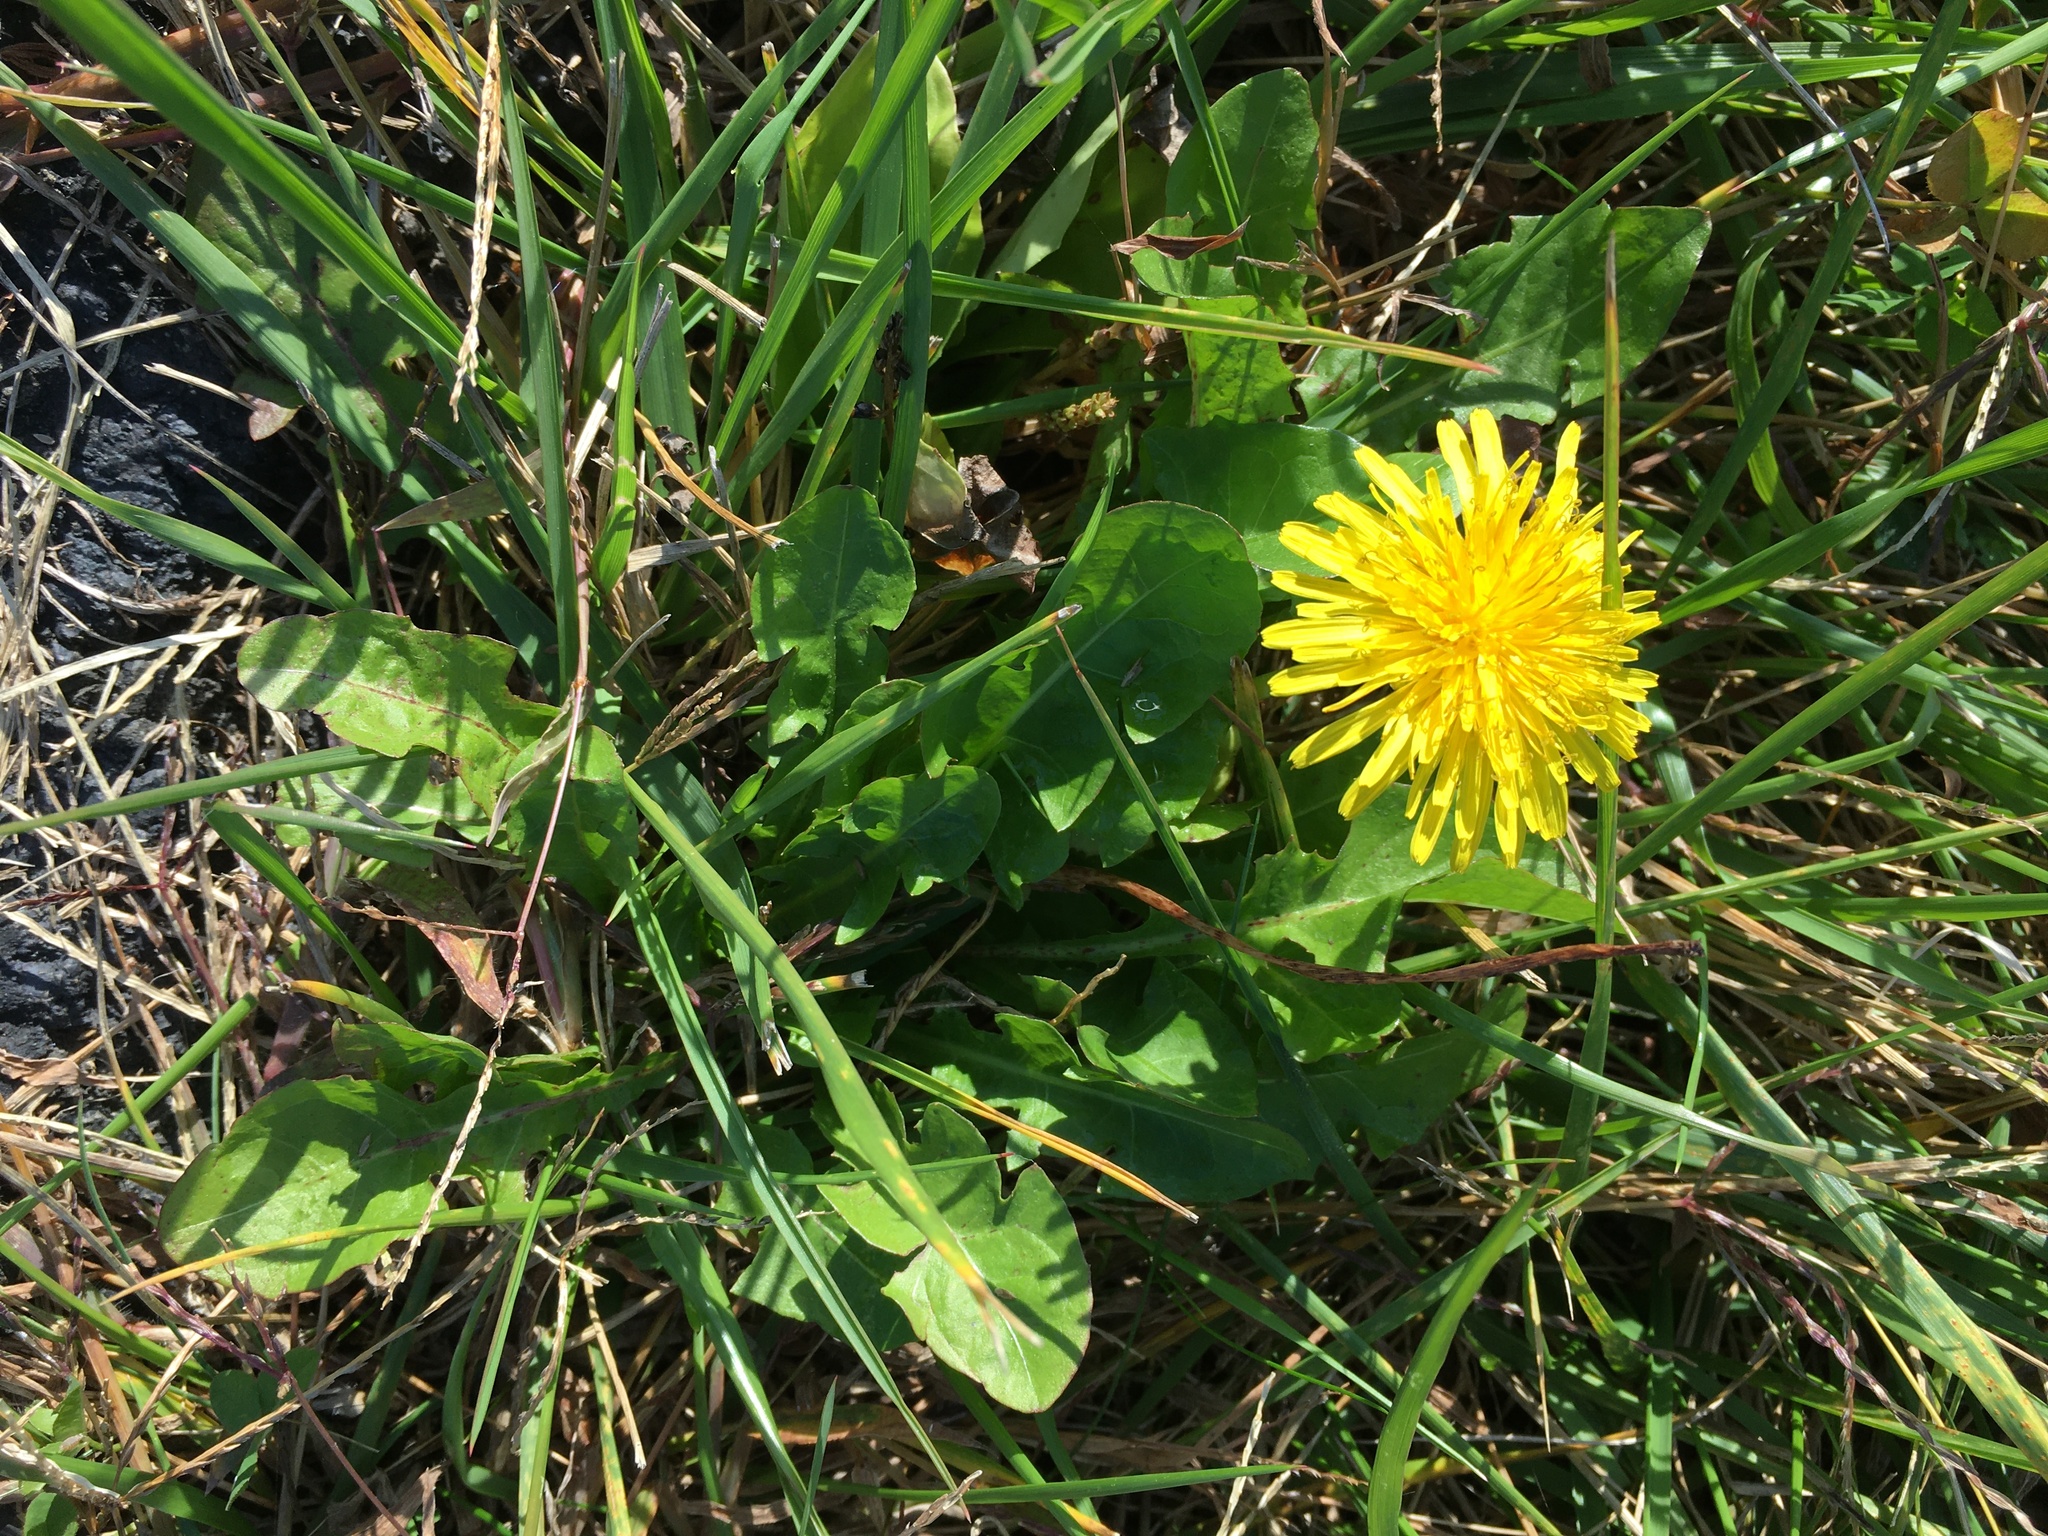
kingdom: Plantae
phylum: Tracheophyta
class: Magnoliopsida
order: Asterales
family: Asteraceae
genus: Taraxacum
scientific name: Taraxacum officinale
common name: Common dandelion
